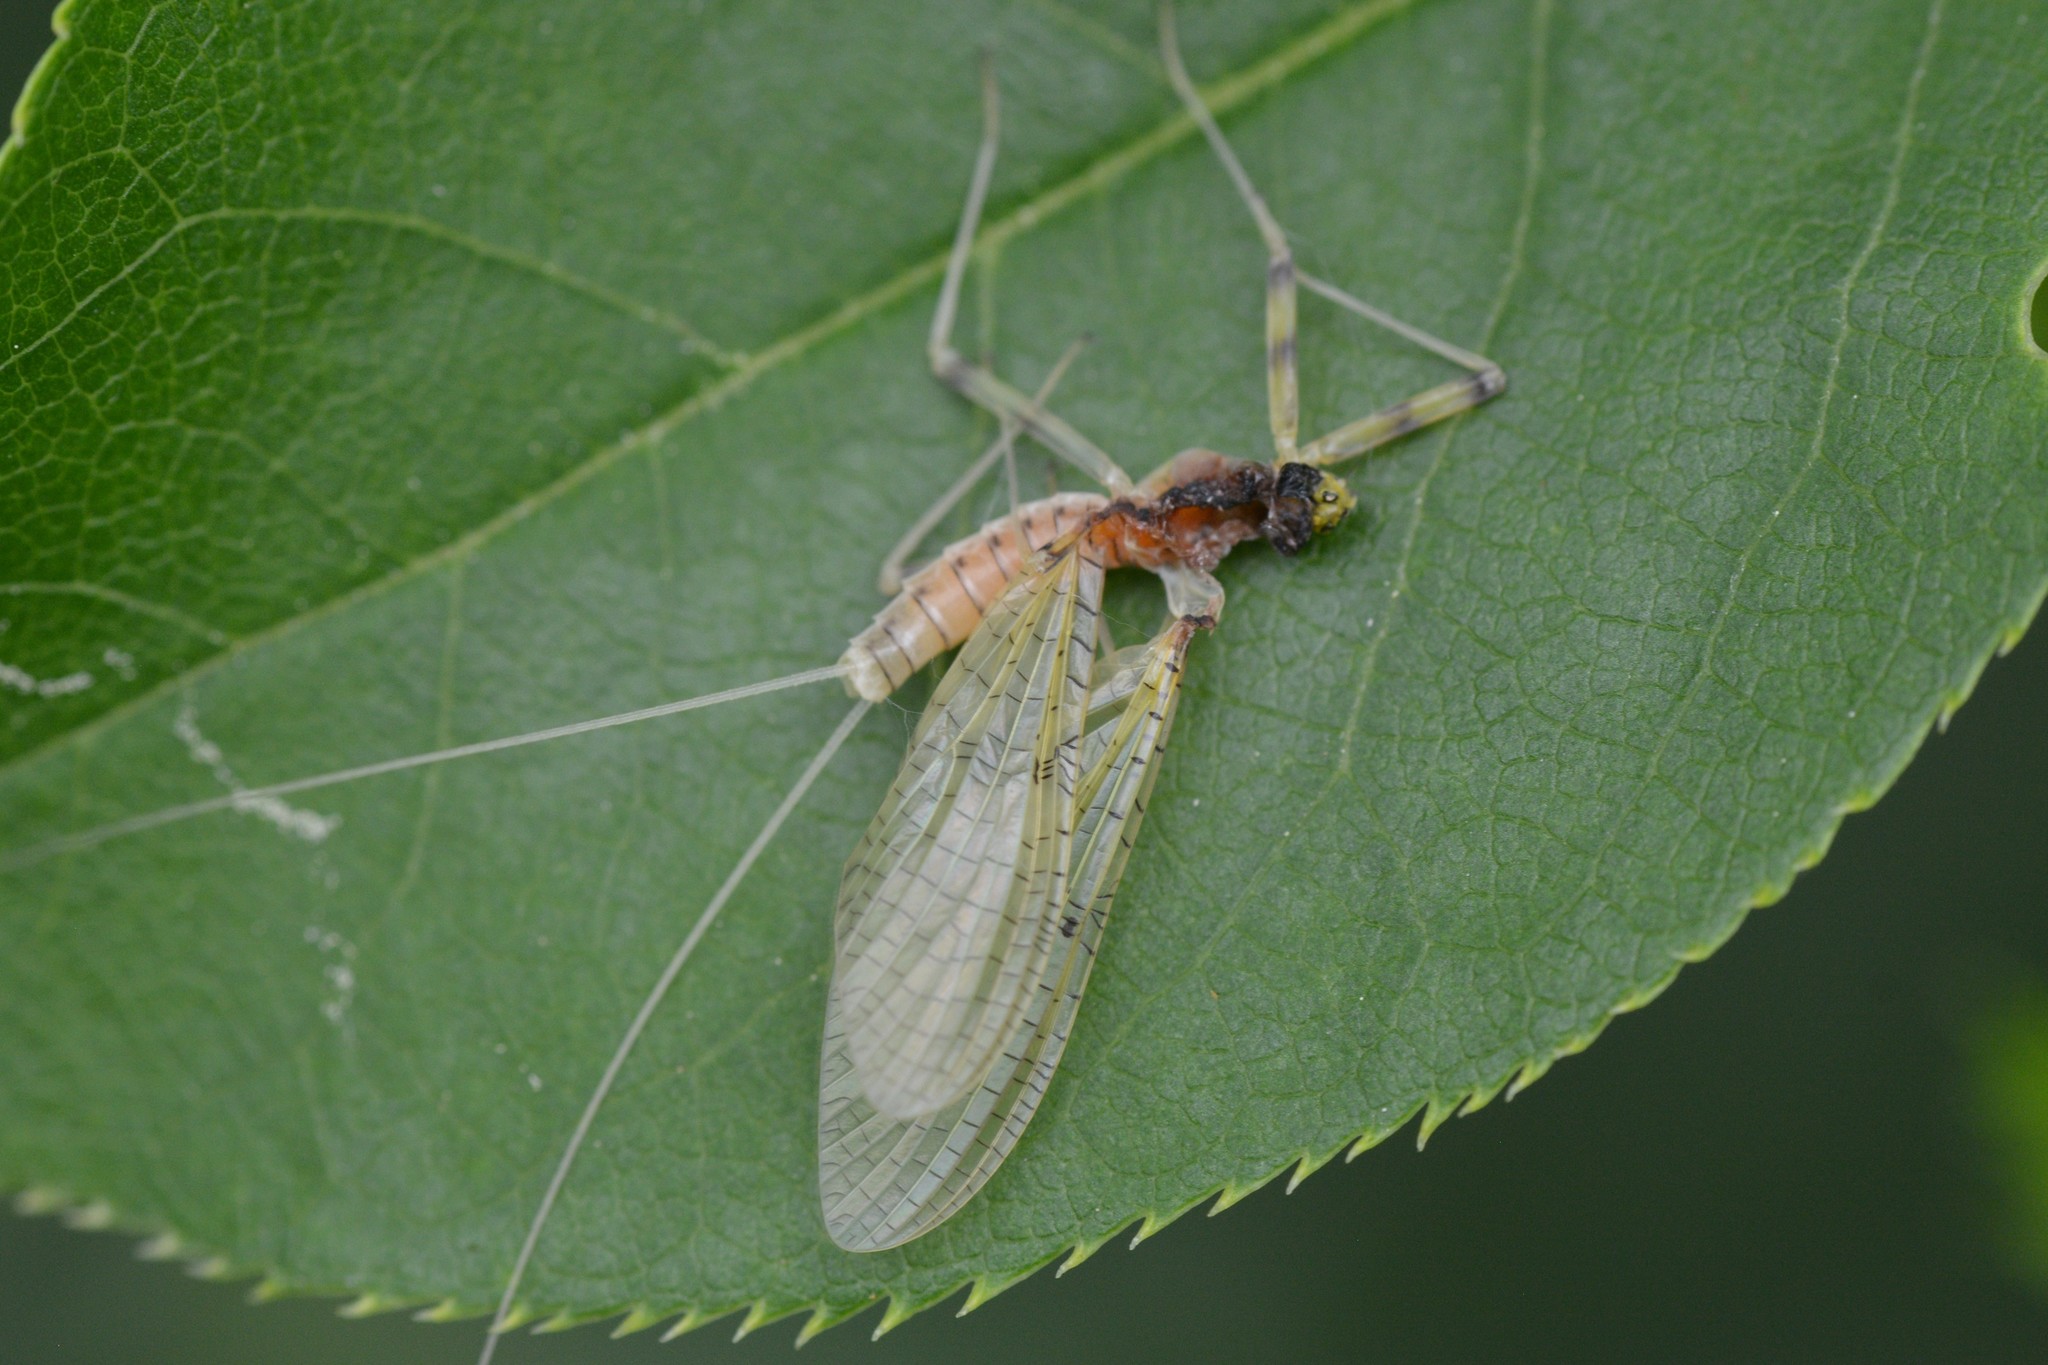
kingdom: Animalia
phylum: Arthropoda
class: Insecta
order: Ephemeroptera
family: Heptageniidae
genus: Stenacron
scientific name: Stenacron interpunctatum
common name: Orange cahill
